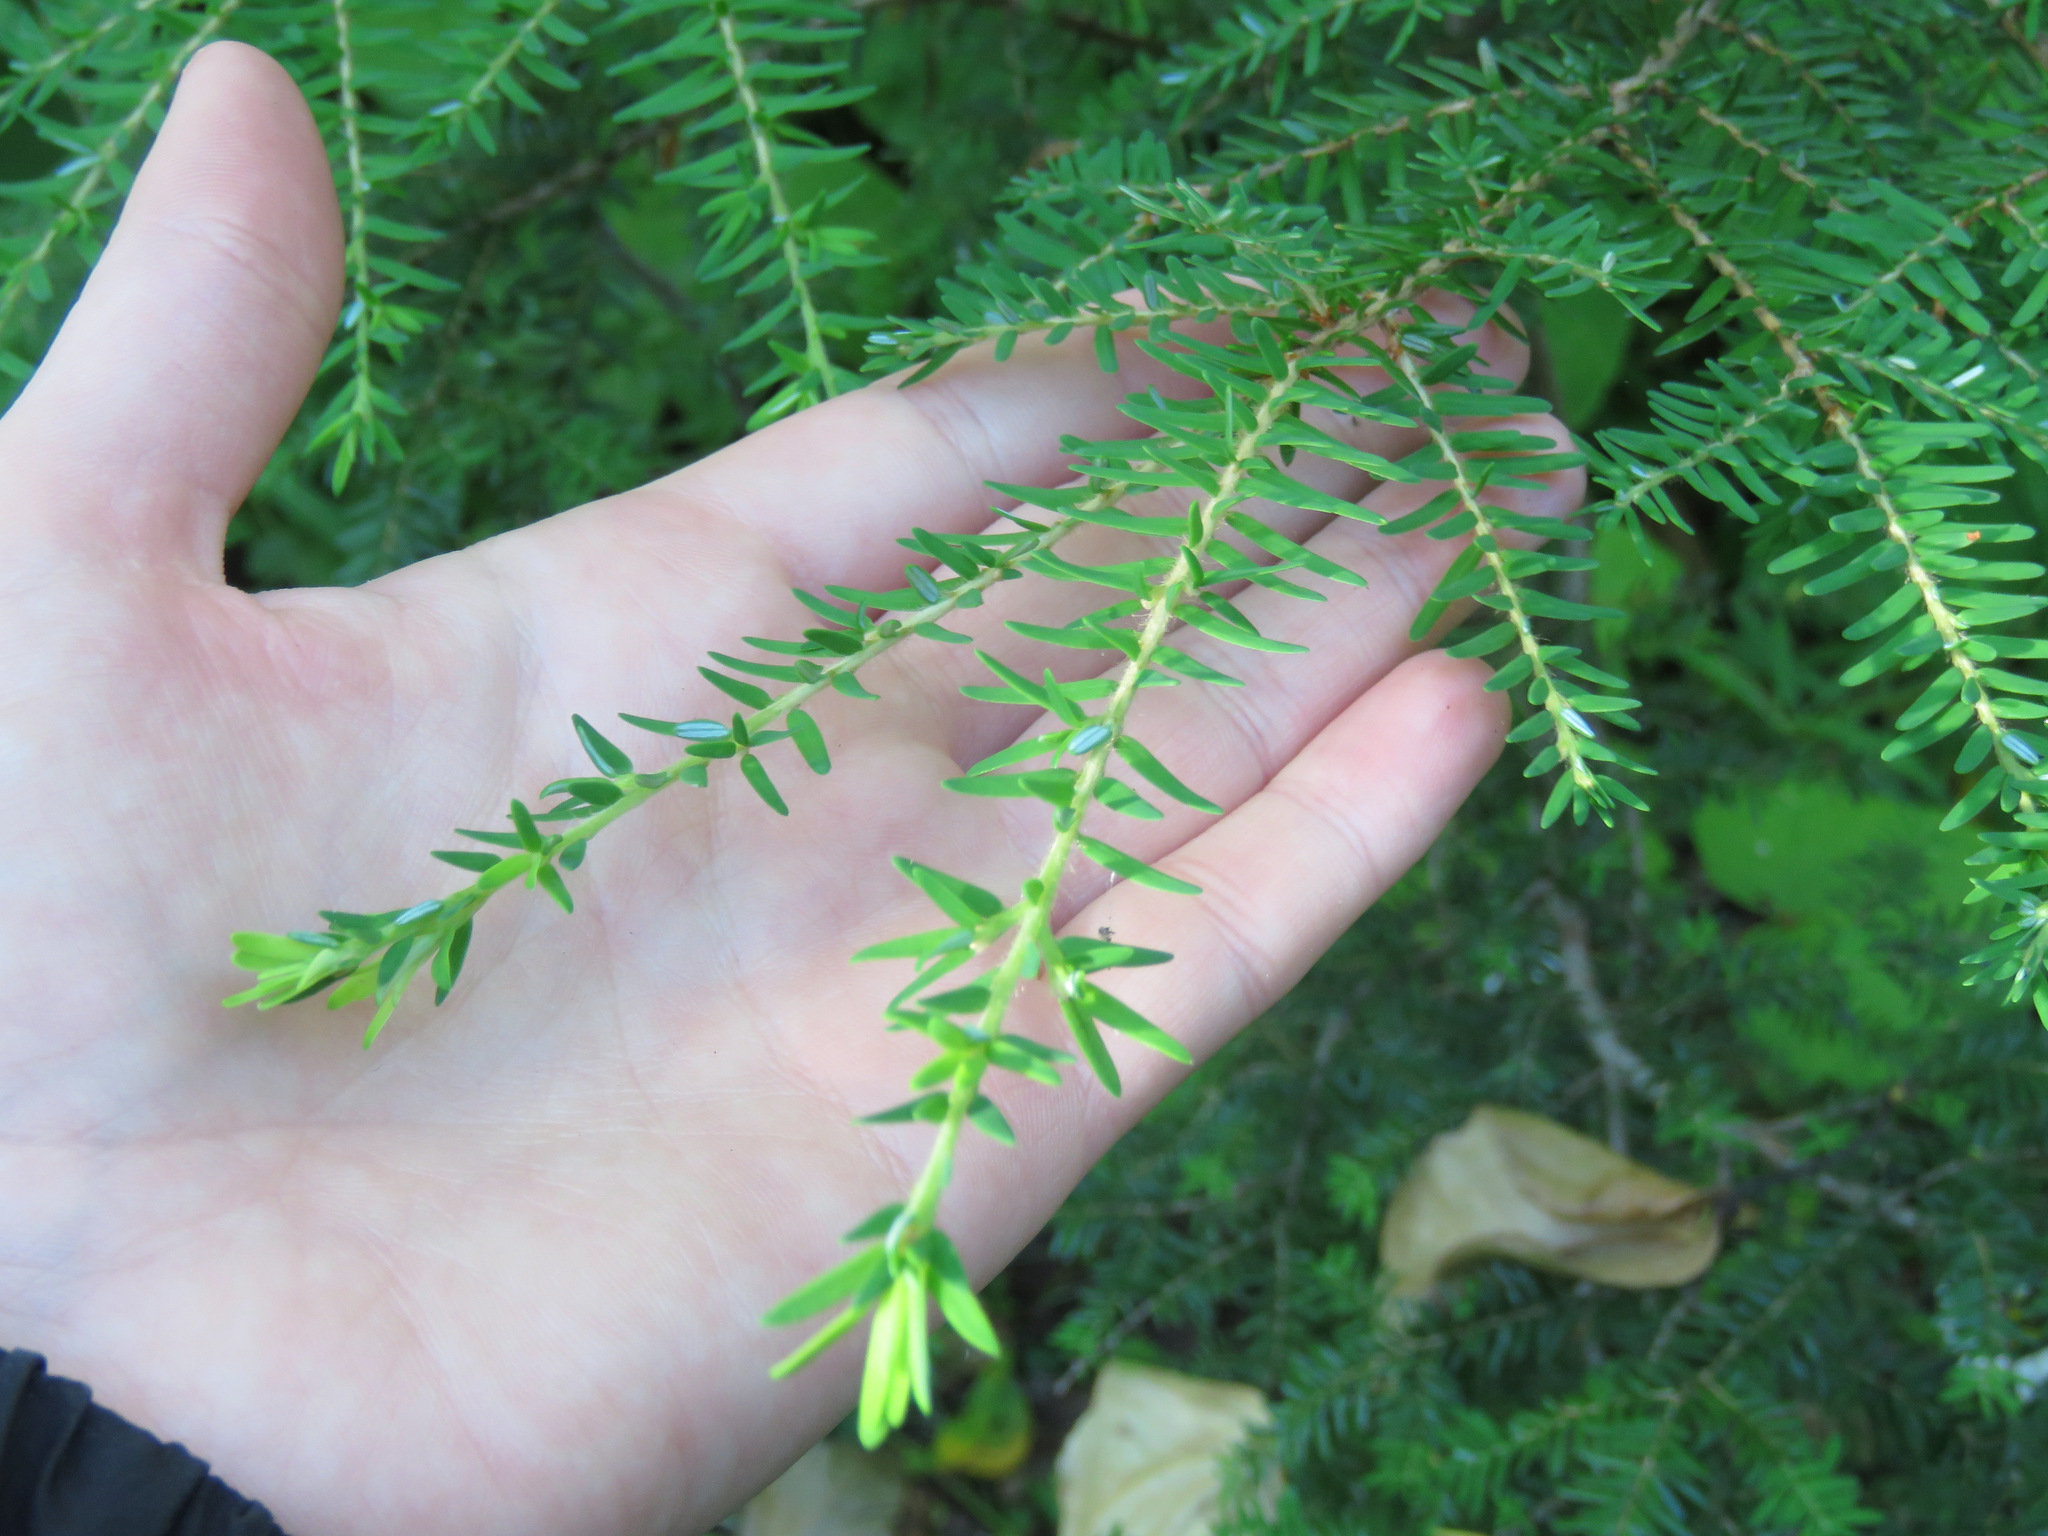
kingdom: Plantae
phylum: Tracheophyta
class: Pinopsida
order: Pinales
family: Pinaceae
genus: Tsuga
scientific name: Tsuga heterophylla
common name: Western hemlock
